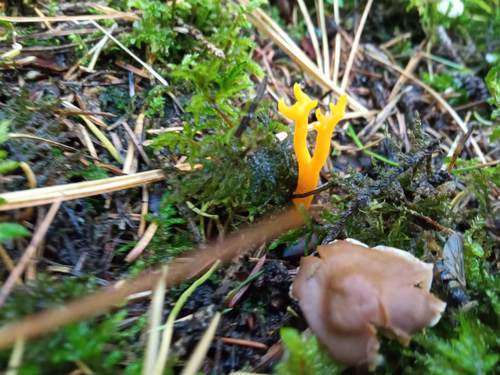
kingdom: Fungi
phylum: Basidiomycota
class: Dacrymycetes
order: Dacrymycetales
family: Dacrymycetaceae
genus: Calocera
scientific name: Calocera cornea
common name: Small stagshorn
